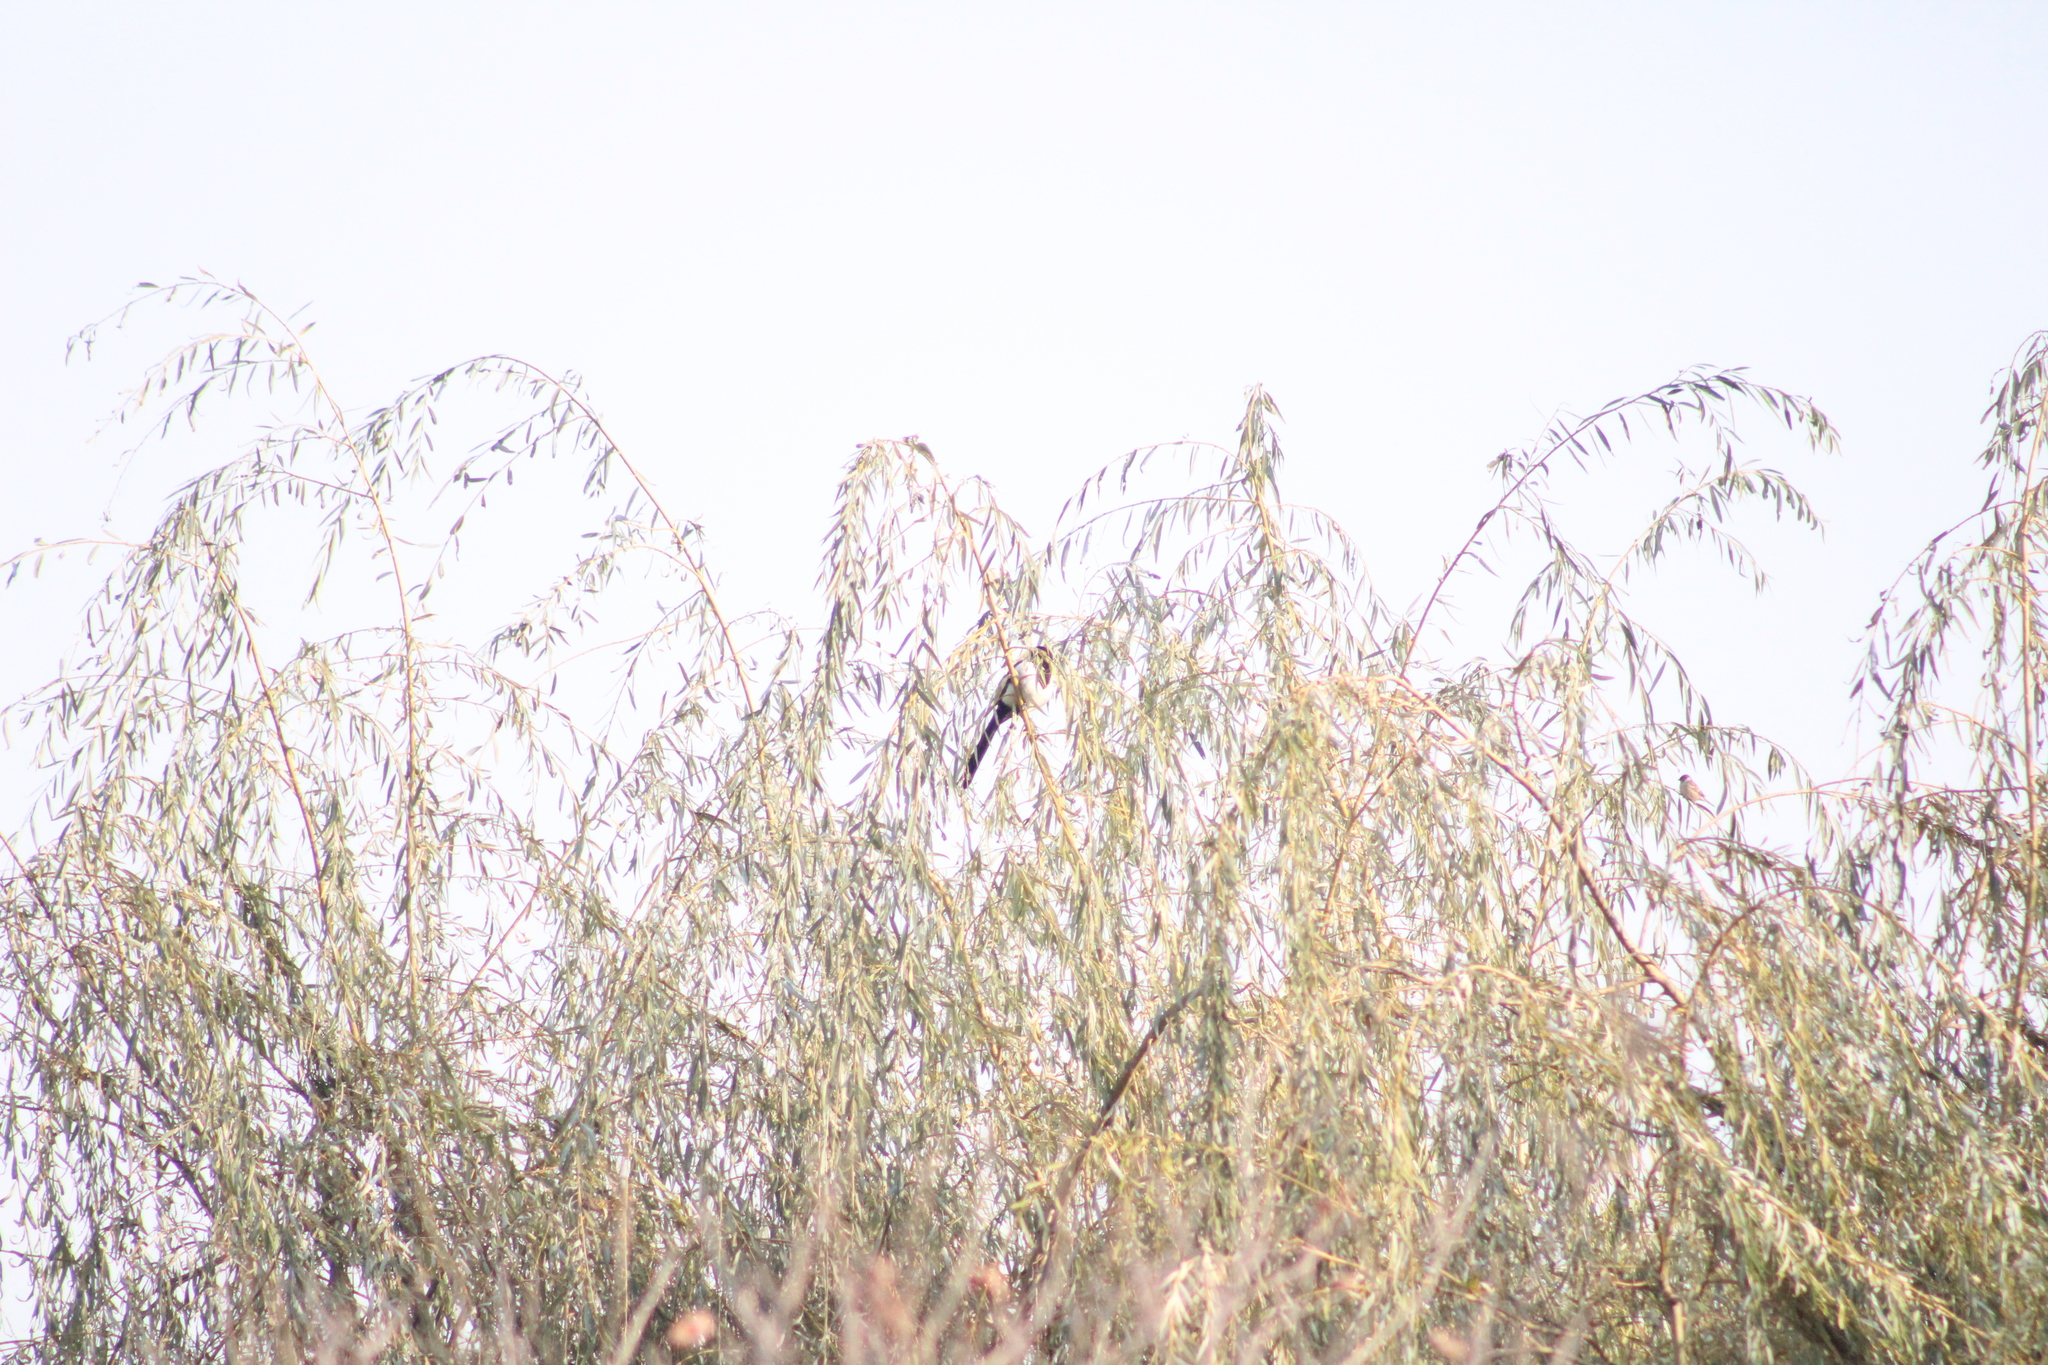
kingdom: Animalia
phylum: Chordata
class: Aves
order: Passeriformes
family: Corvidae
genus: Pica
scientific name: Pica serica
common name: Oriental magpie
